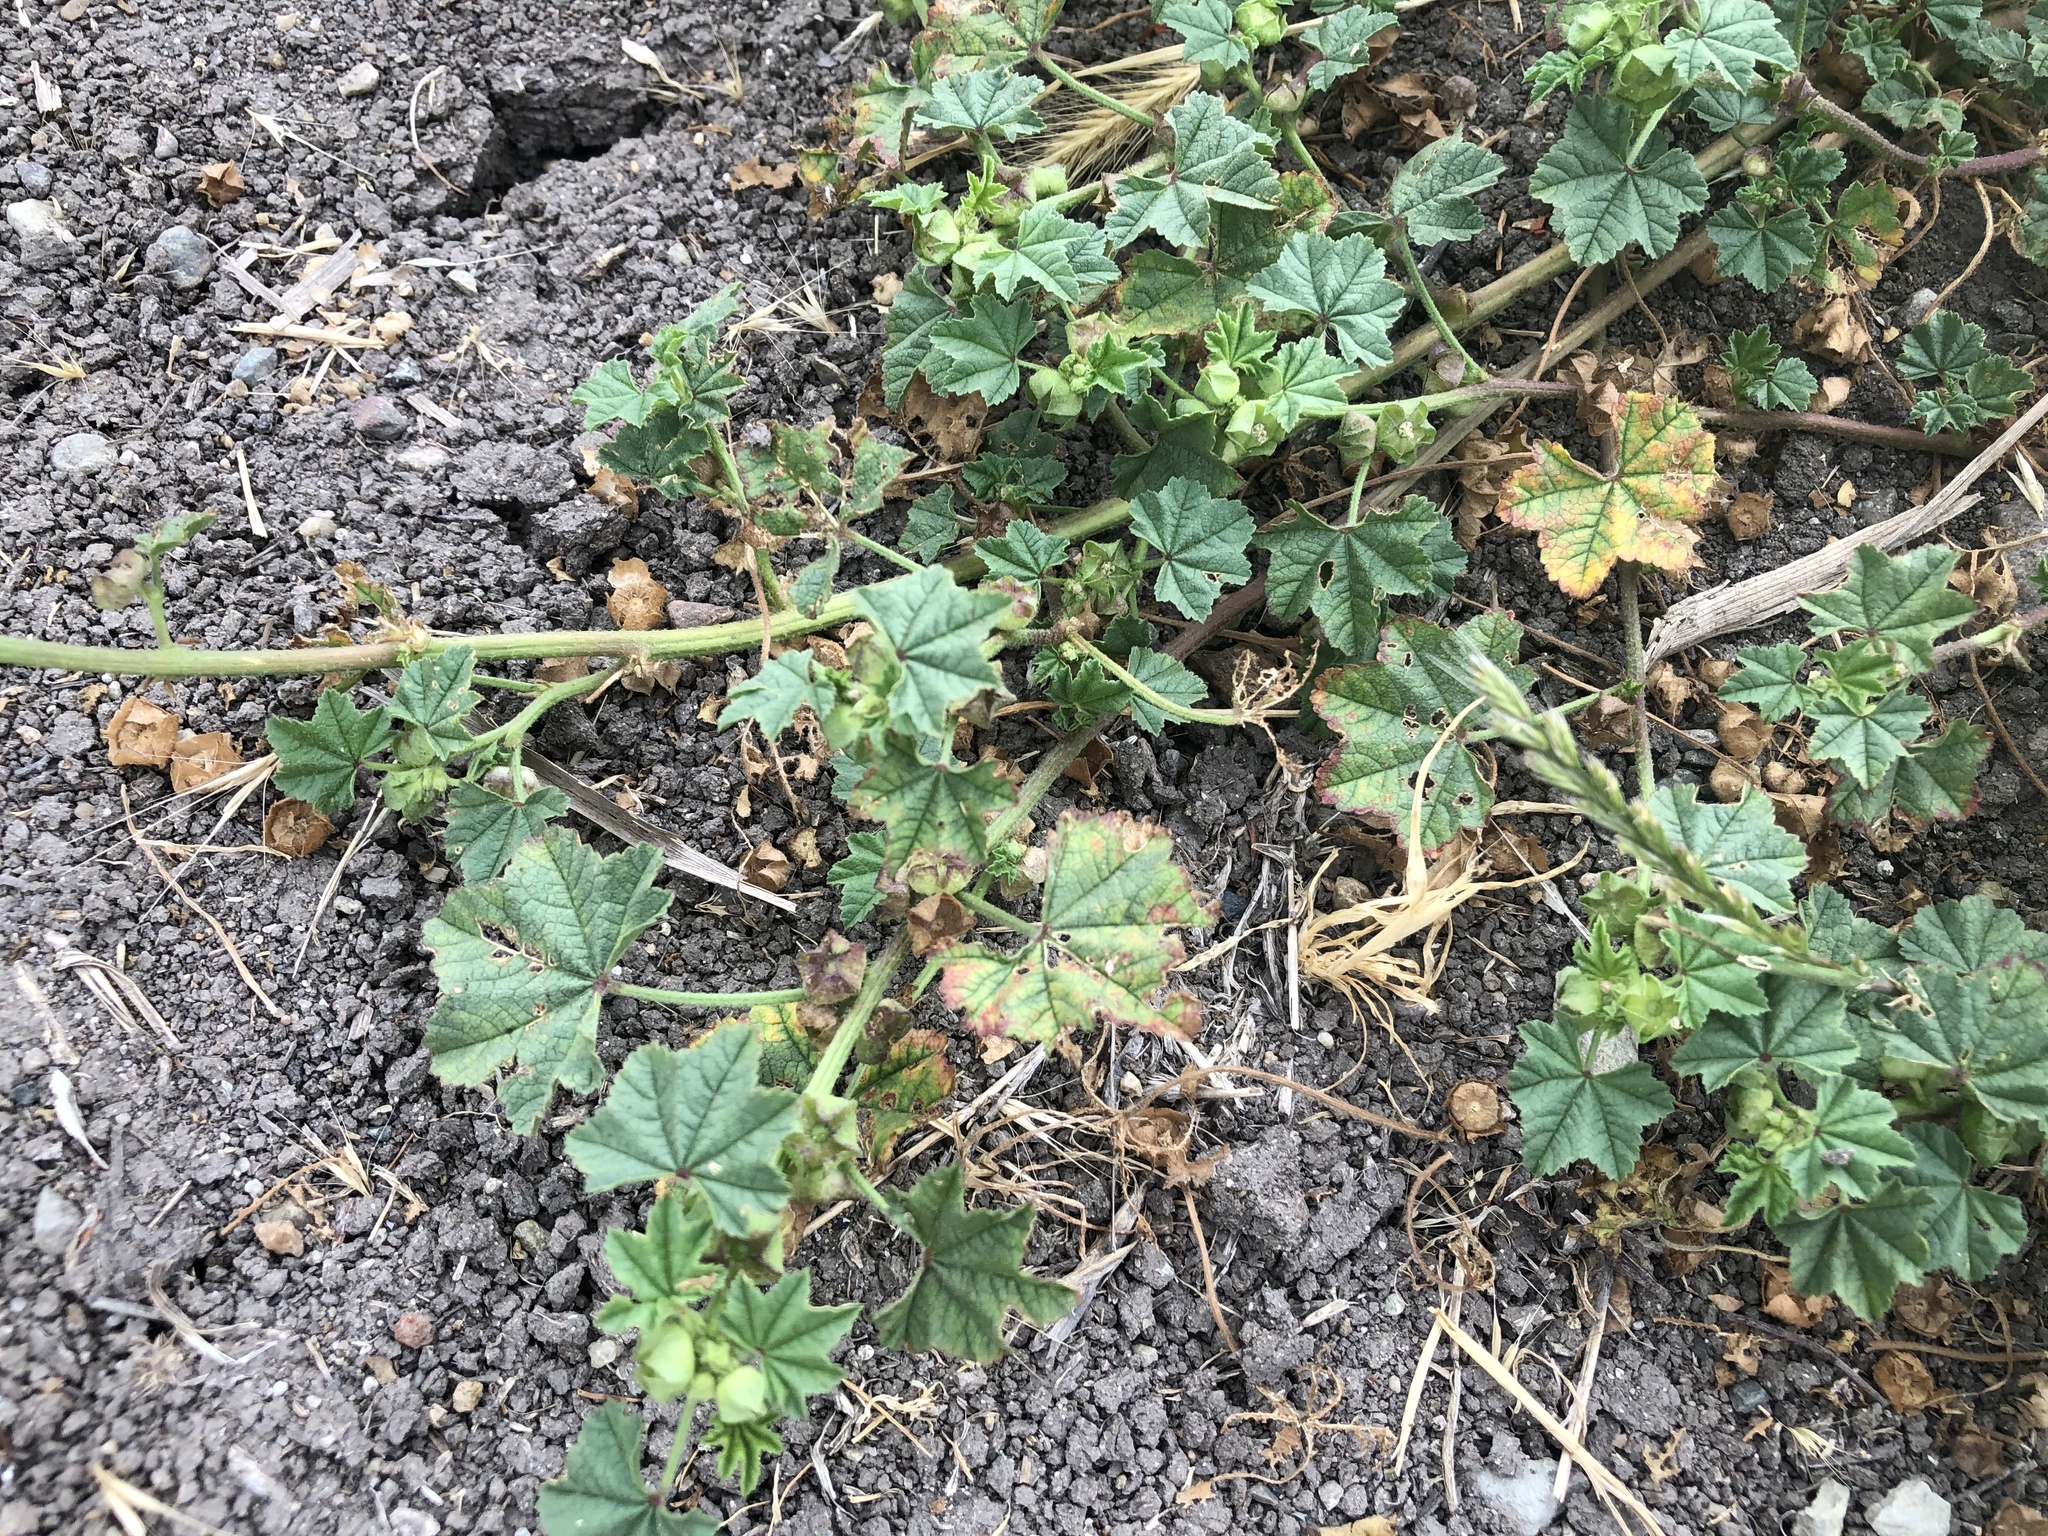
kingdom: Plantae
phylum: Tracheophyta
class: Magnoliopsida
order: Malvales
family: Malvaceae
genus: Malva
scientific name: Malva parviflora
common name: Least mallow
